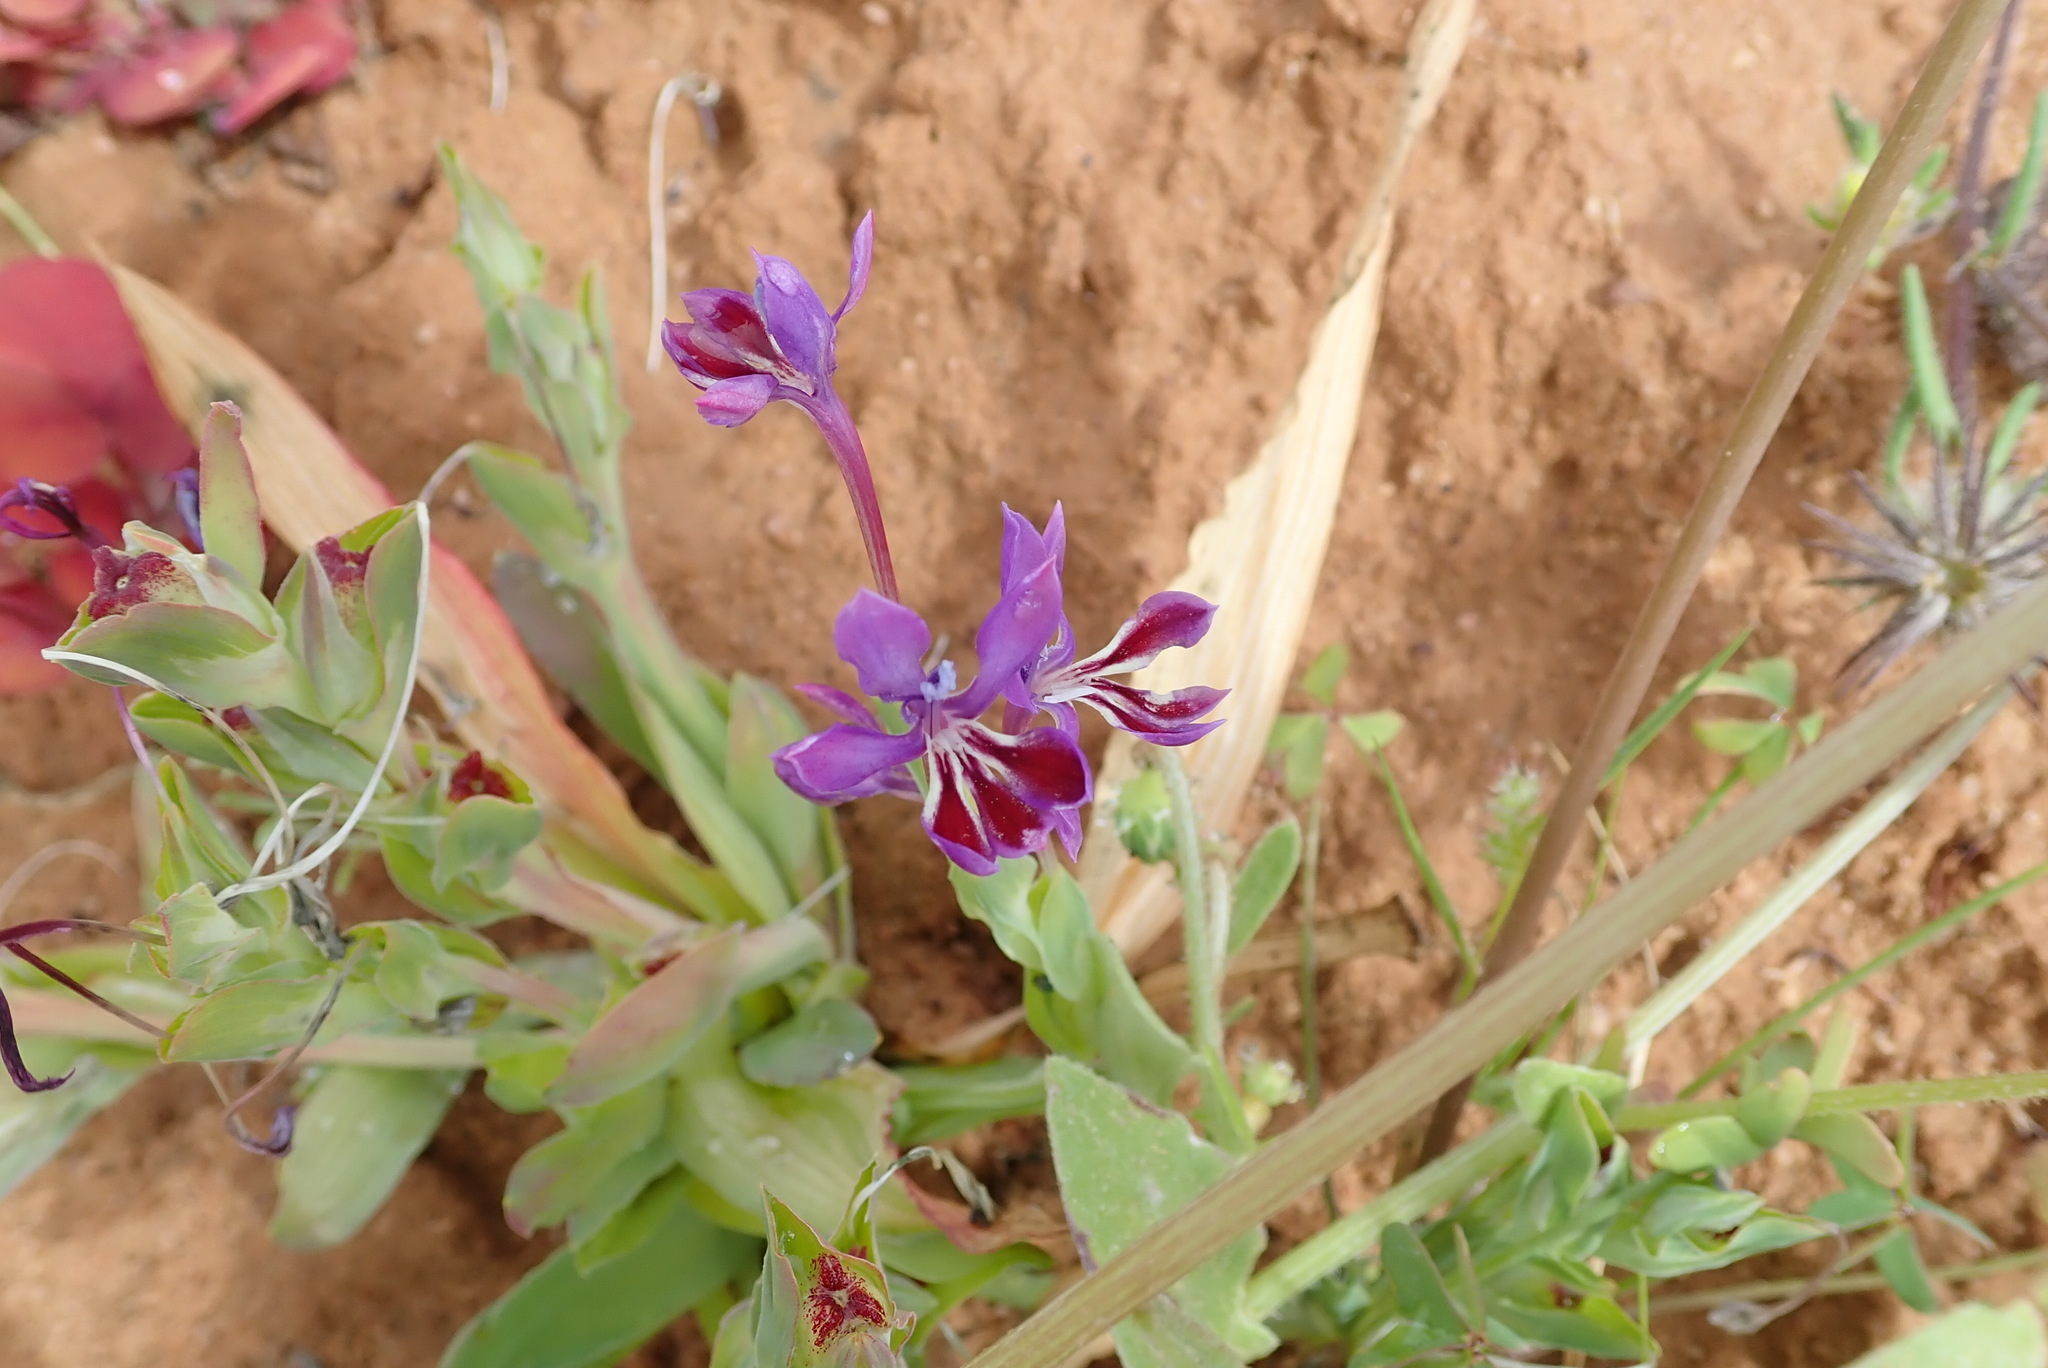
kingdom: Plantae
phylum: Tracheophyta
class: Liliopsida
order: Asparagales
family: Iridaceae
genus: Lapeirousia
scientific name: Lapeirousia jacquinii
